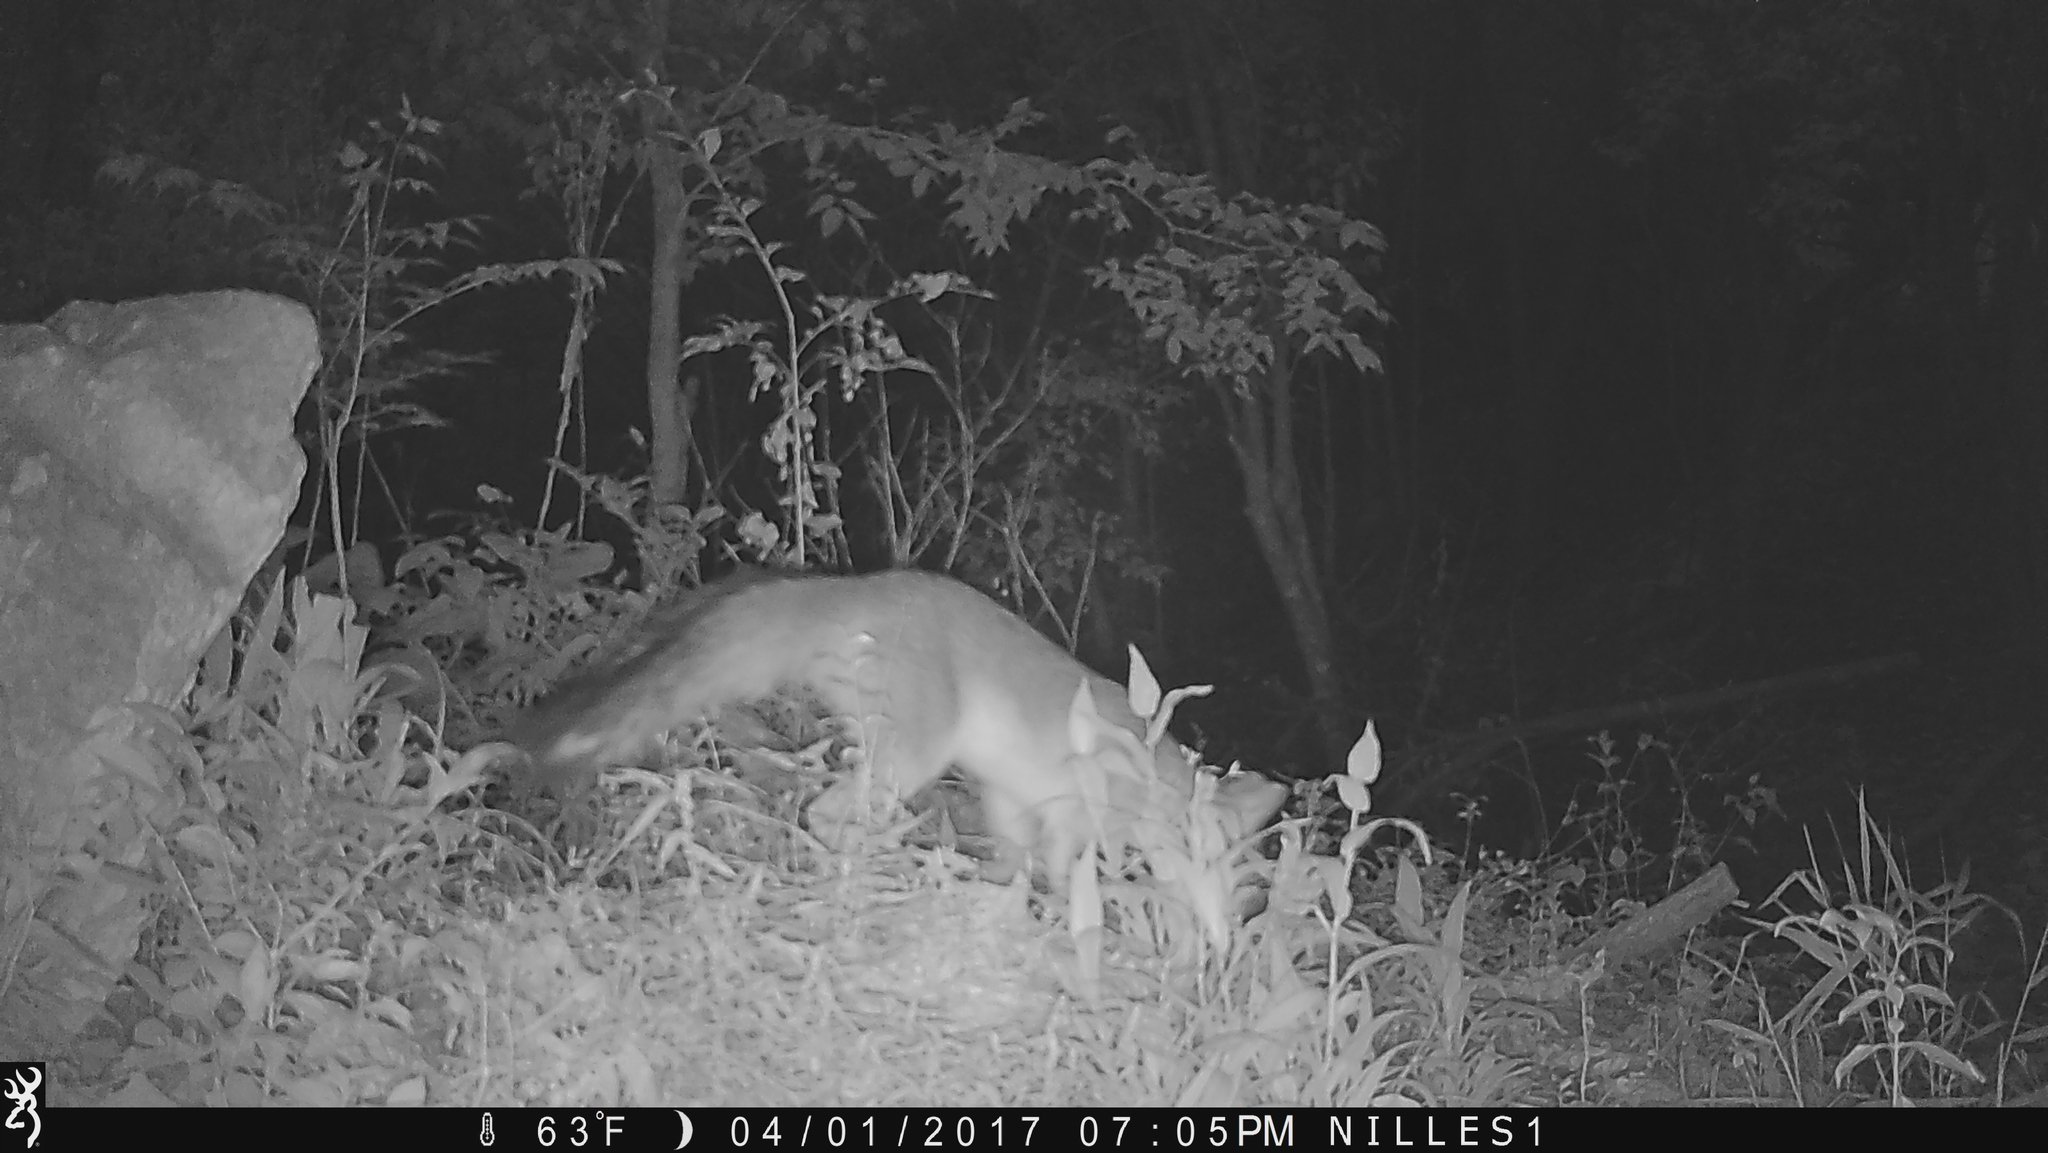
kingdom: Animalia
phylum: Chordata
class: Mammalia
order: Carnivora
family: Canidae
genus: Urocyon
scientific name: Urocyon cinereoargenteus
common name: Gray fox
